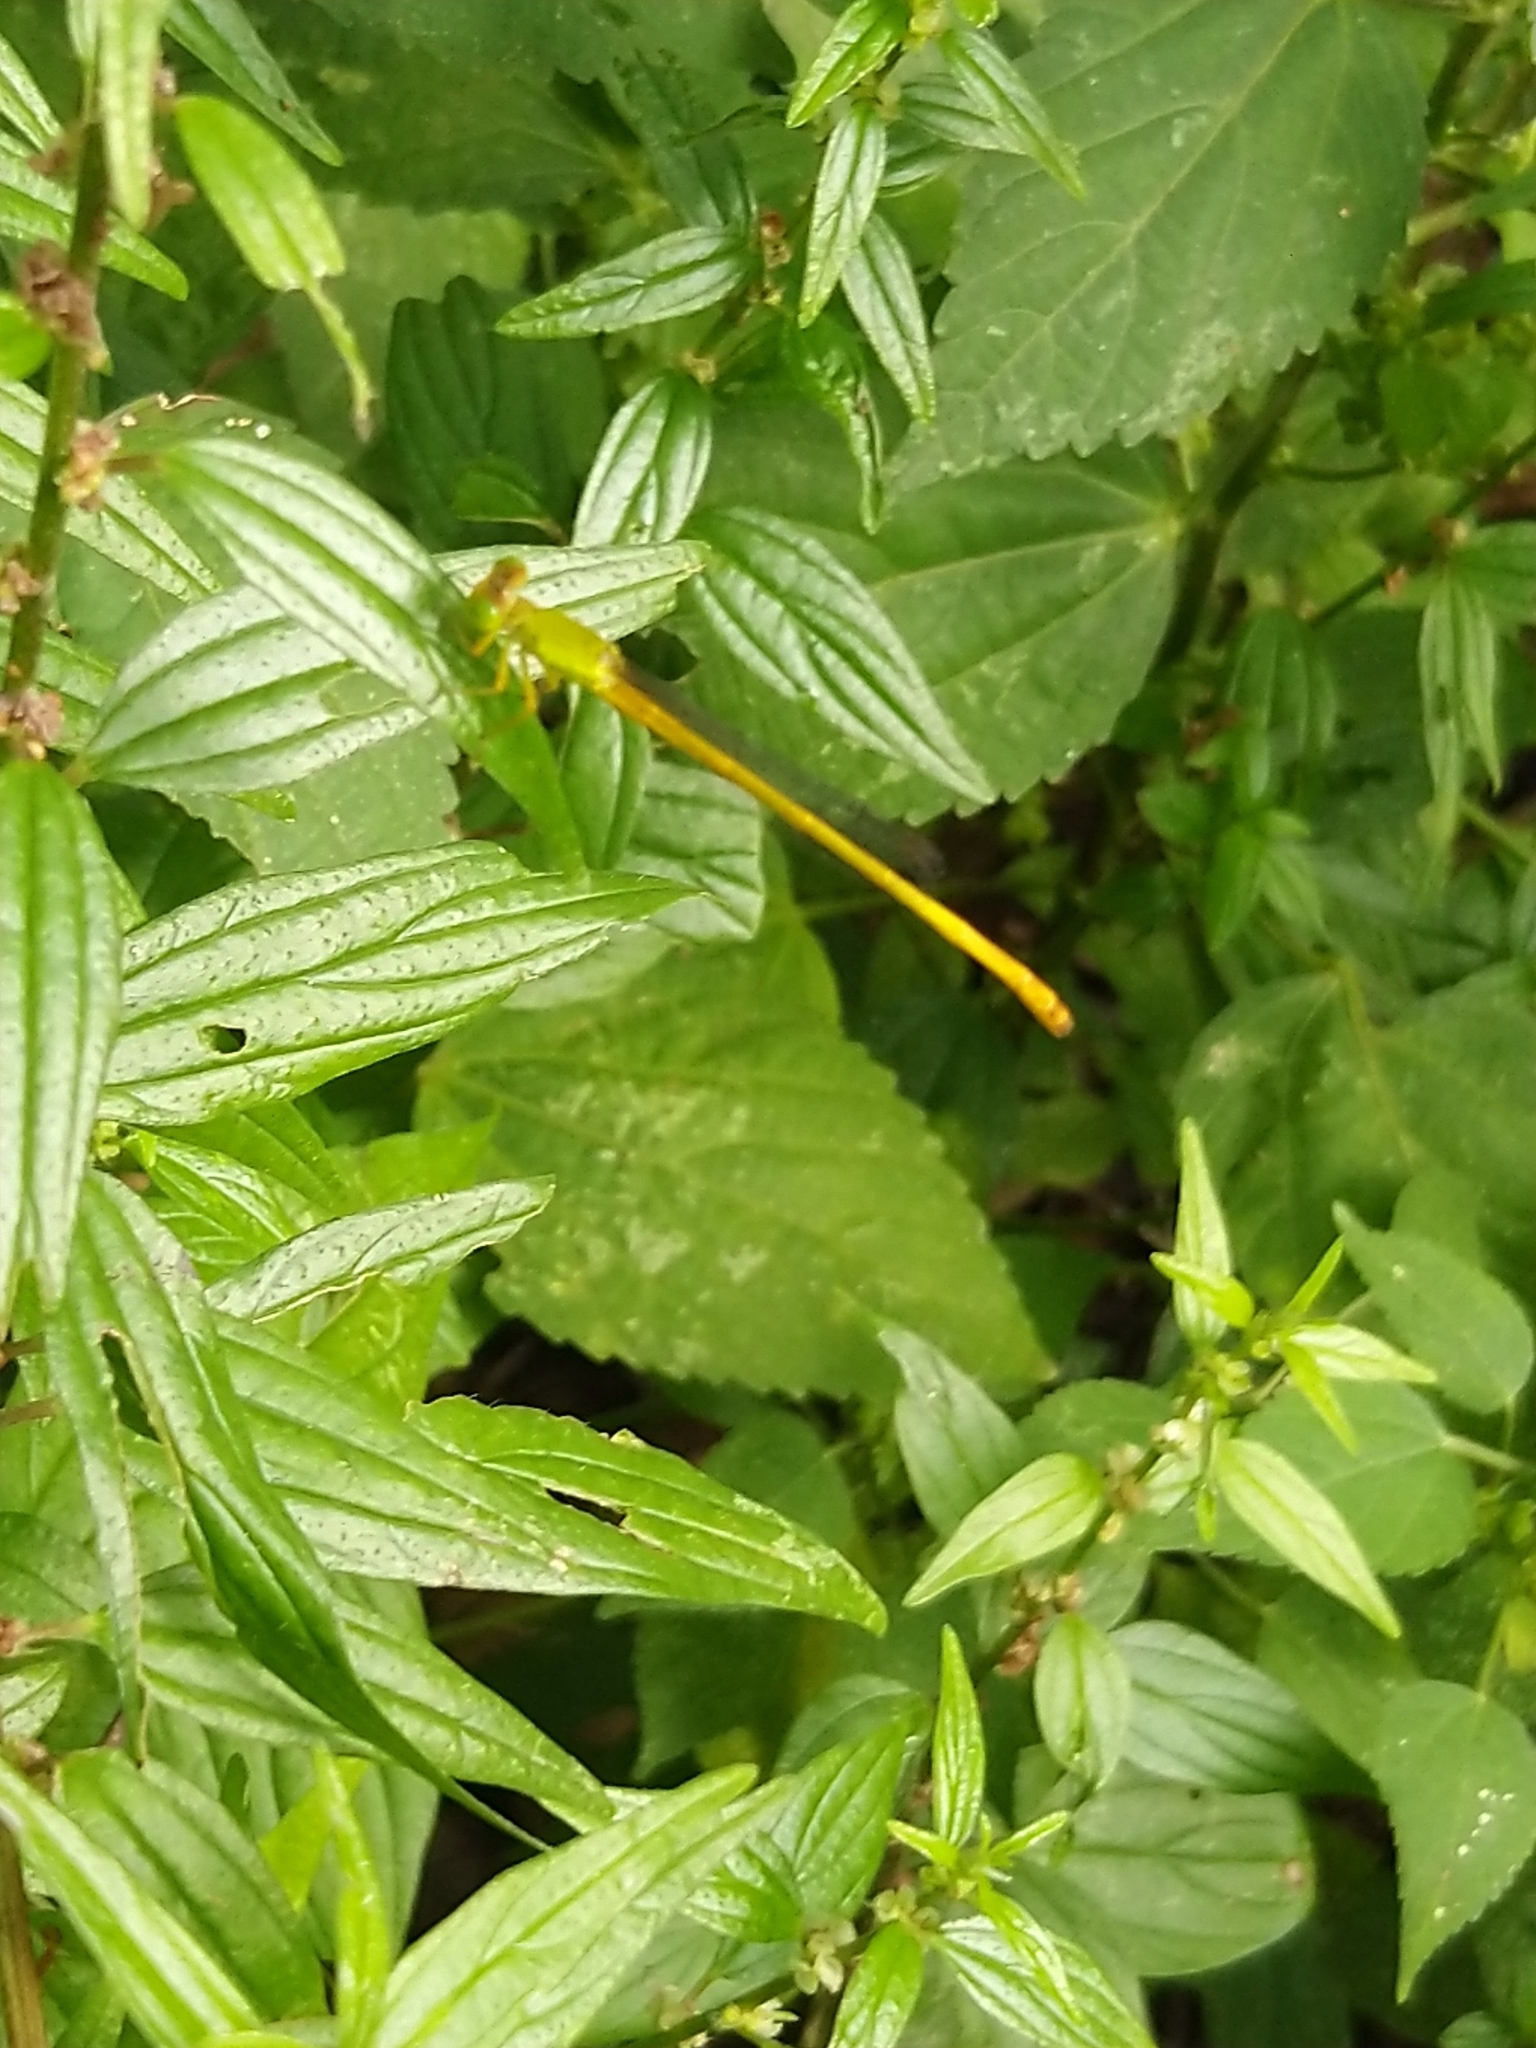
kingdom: Animalia
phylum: Arthropoda
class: Insecta
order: Odonata
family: Coenagrionidae
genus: Ceriagrion
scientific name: Ceriagrion coromandelianum
